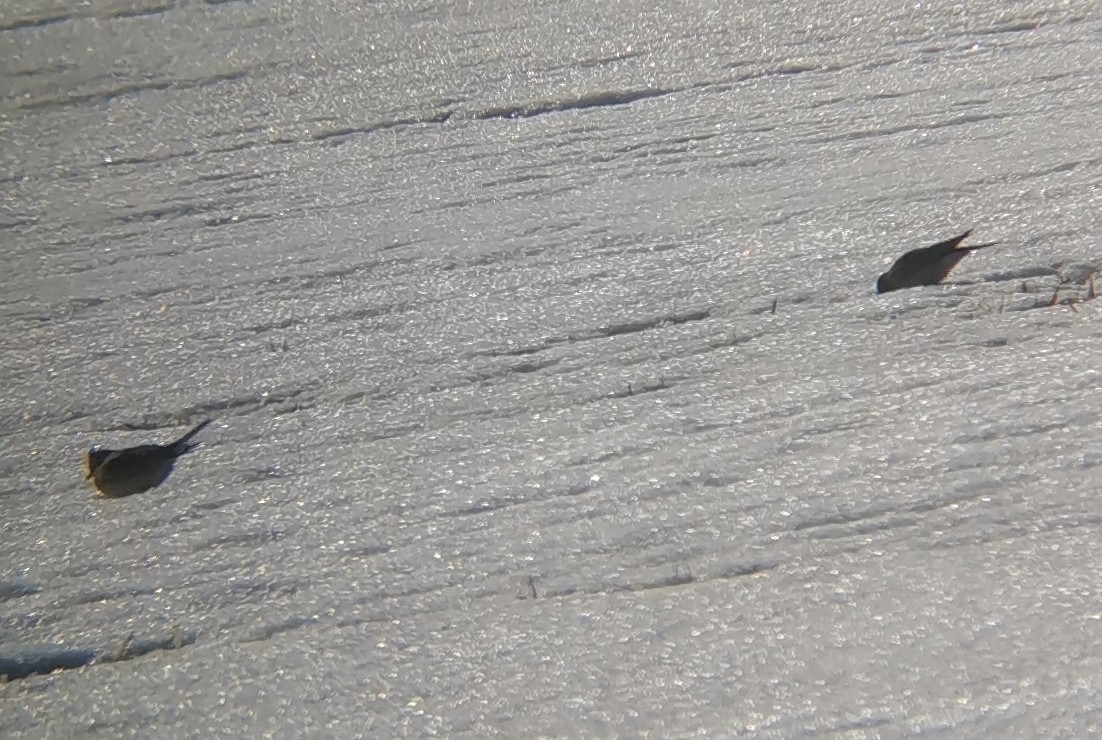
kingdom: Animalia
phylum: Chordata
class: Aves
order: Passeriformes
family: Alaudidae
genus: Alauda
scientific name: Alauda arvensis
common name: Eurasian skylark
